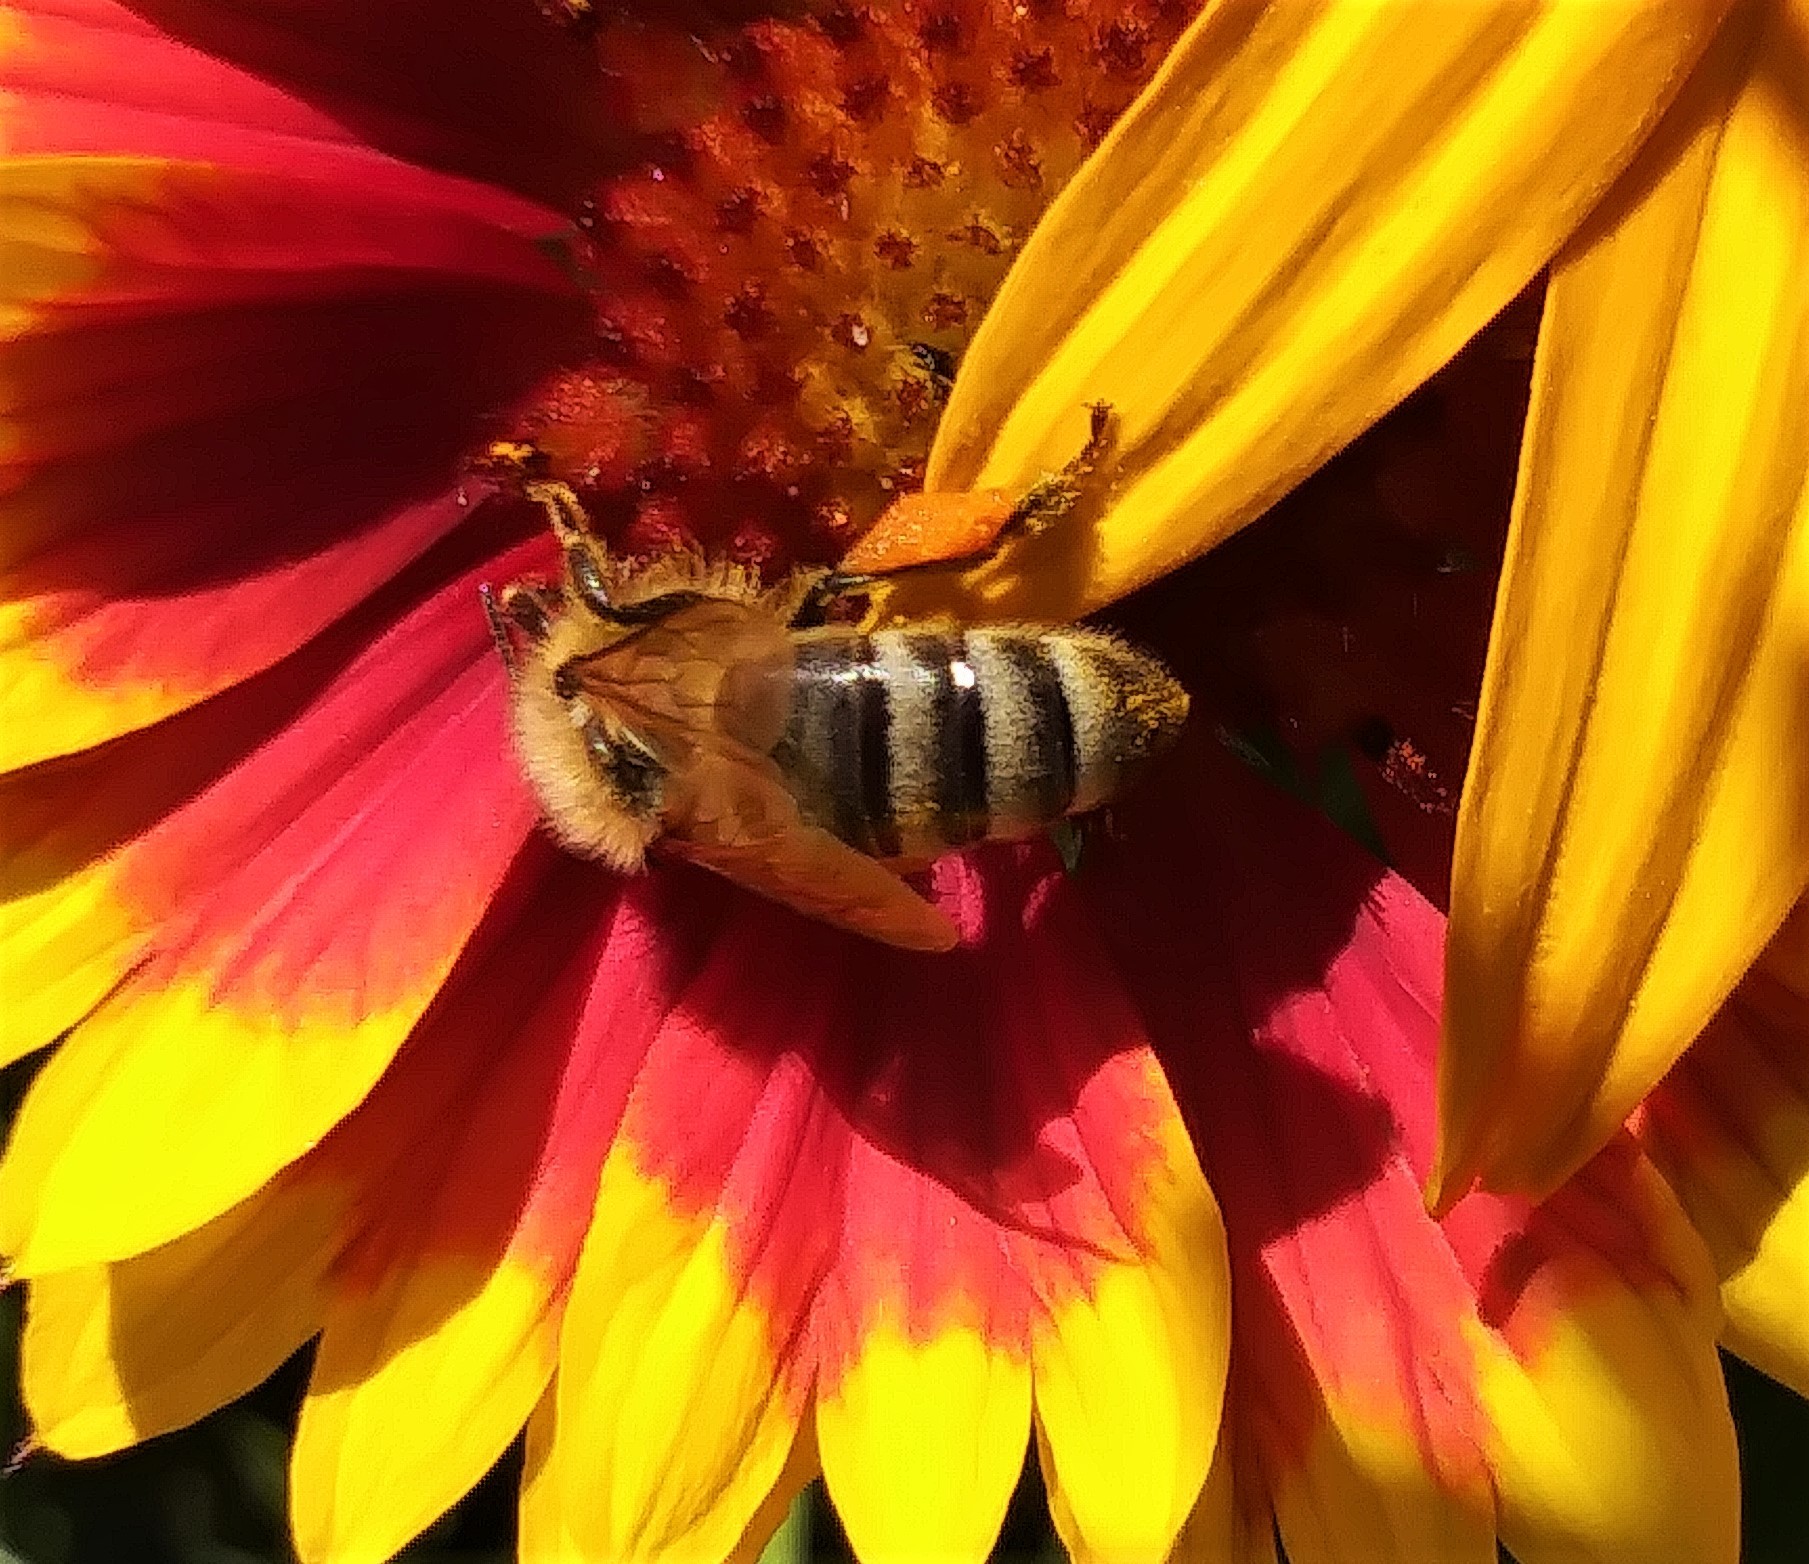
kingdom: Animalia
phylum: Arthropoda
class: Insecta
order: Hymenoptera
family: Apidae
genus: Apis
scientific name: Apis mellifera
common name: Honey bee
